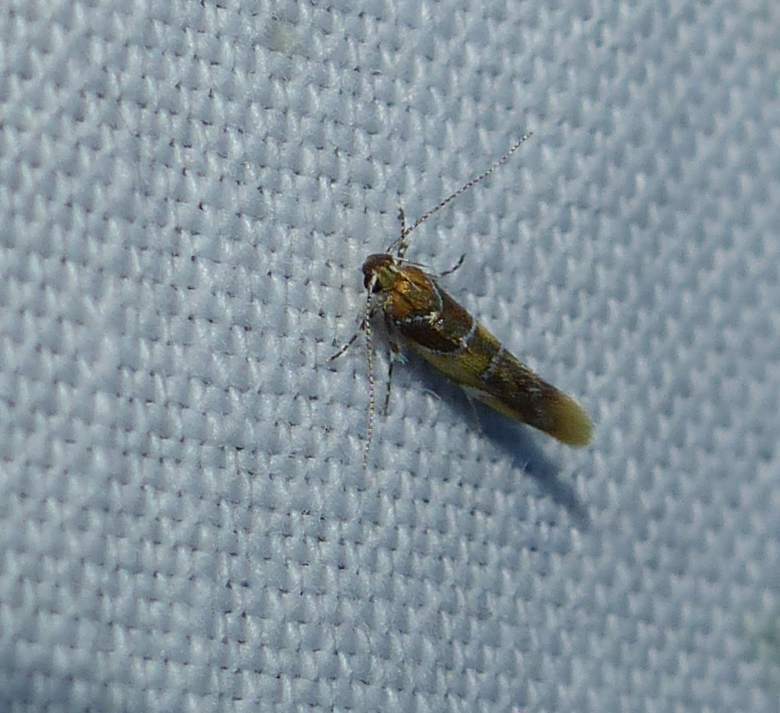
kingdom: Animalia
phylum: Arthropoda
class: Insecta
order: Lepidoptera
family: Oecophoridae
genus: Callima
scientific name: Callima argenticinctella
